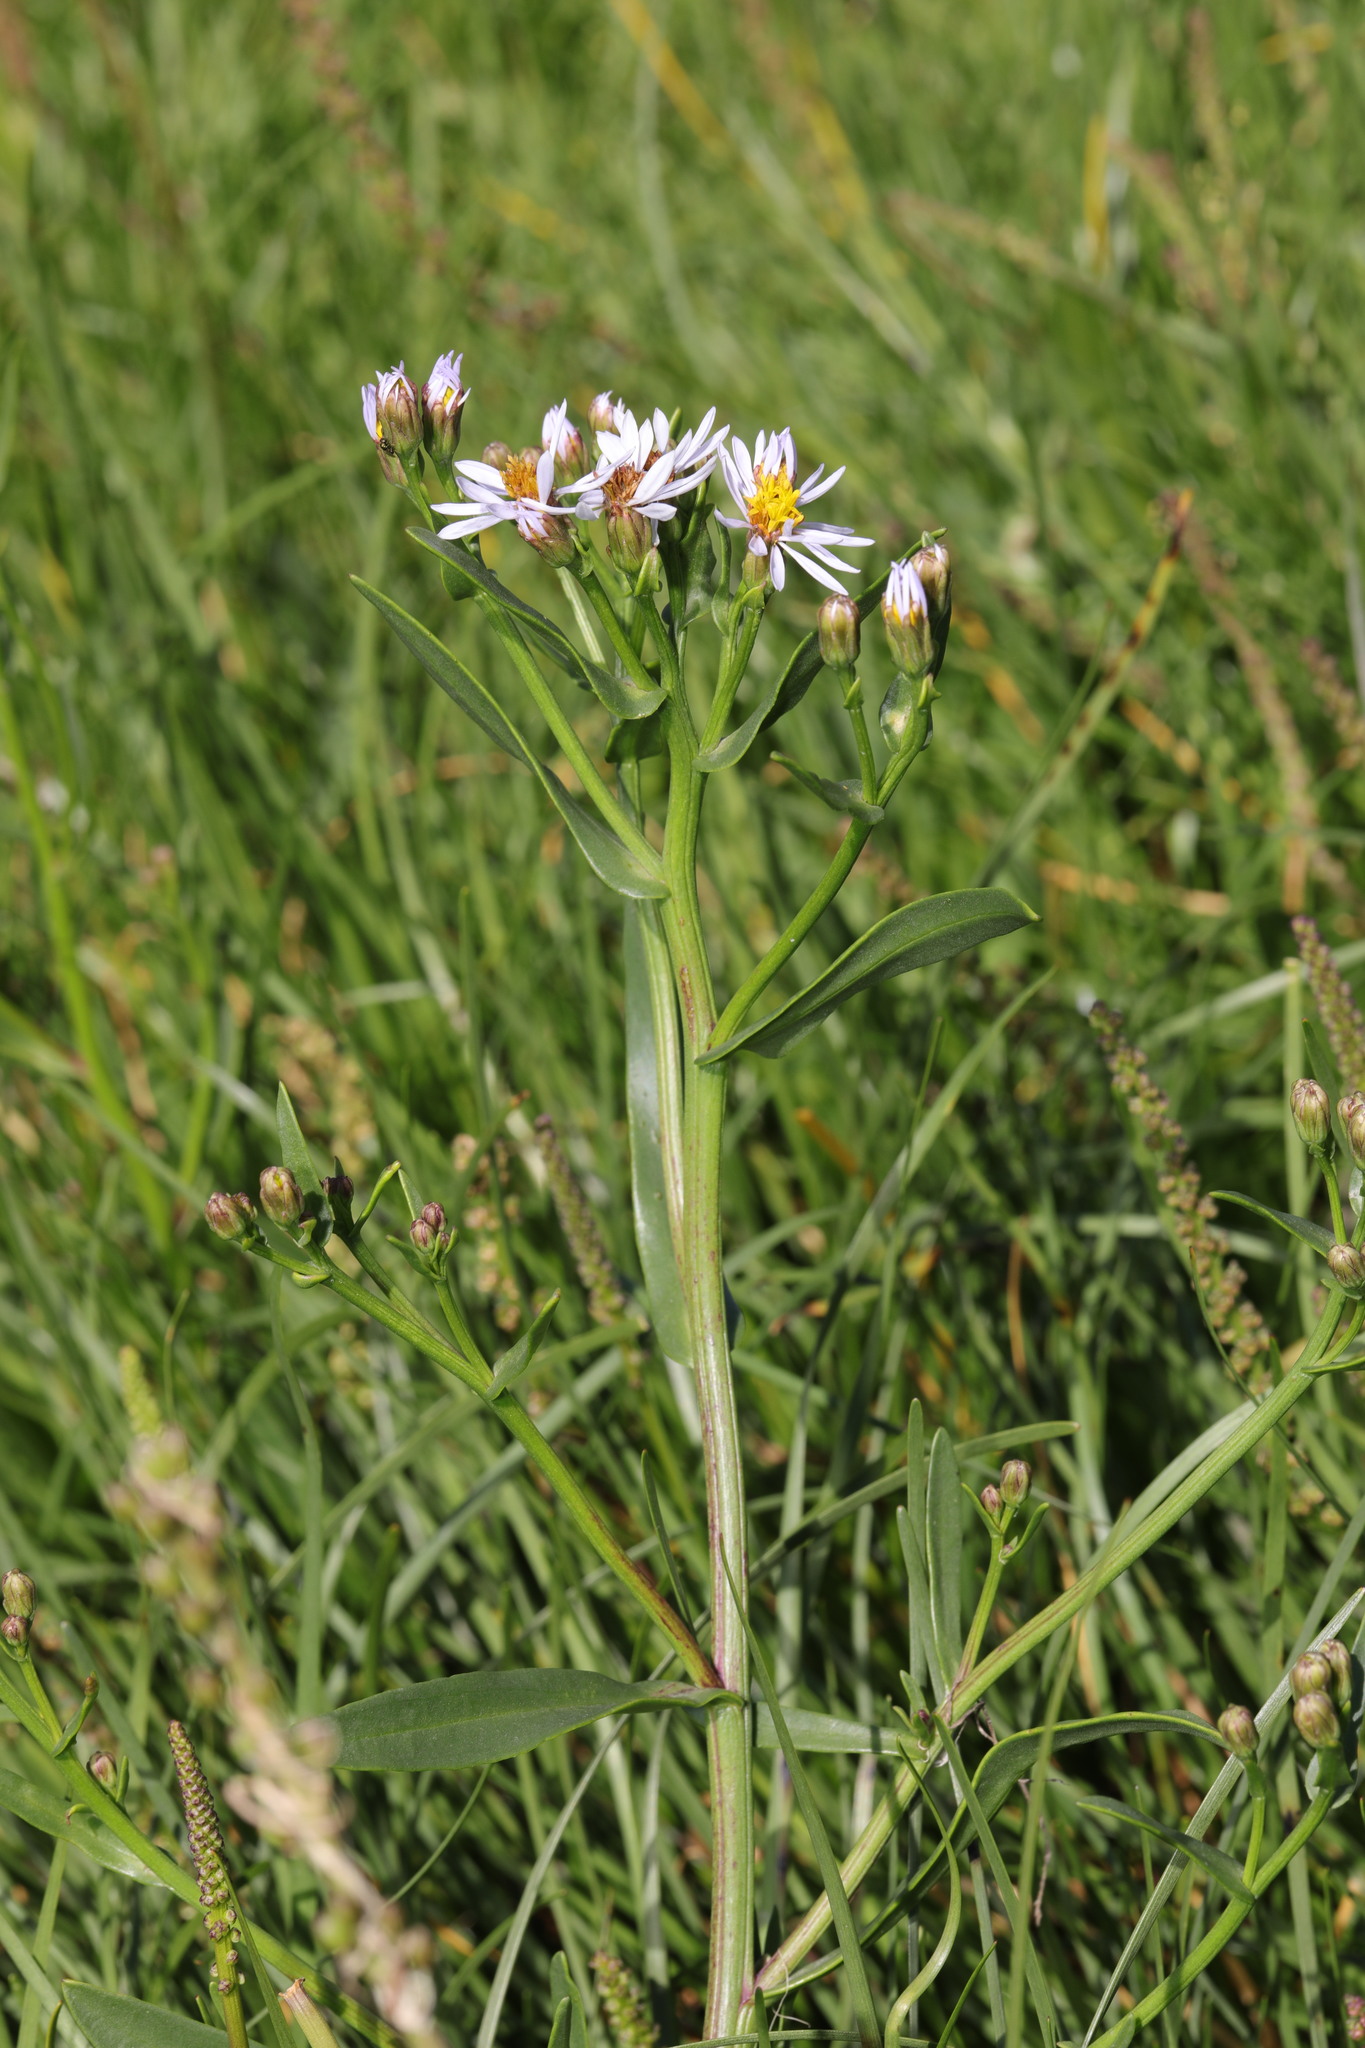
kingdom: Plantae
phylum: Tracheophyta
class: Magnoliopsida
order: Asterales
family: Asteraceae
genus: Tripolium
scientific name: Tripolium pannonicum
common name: Sea aster
